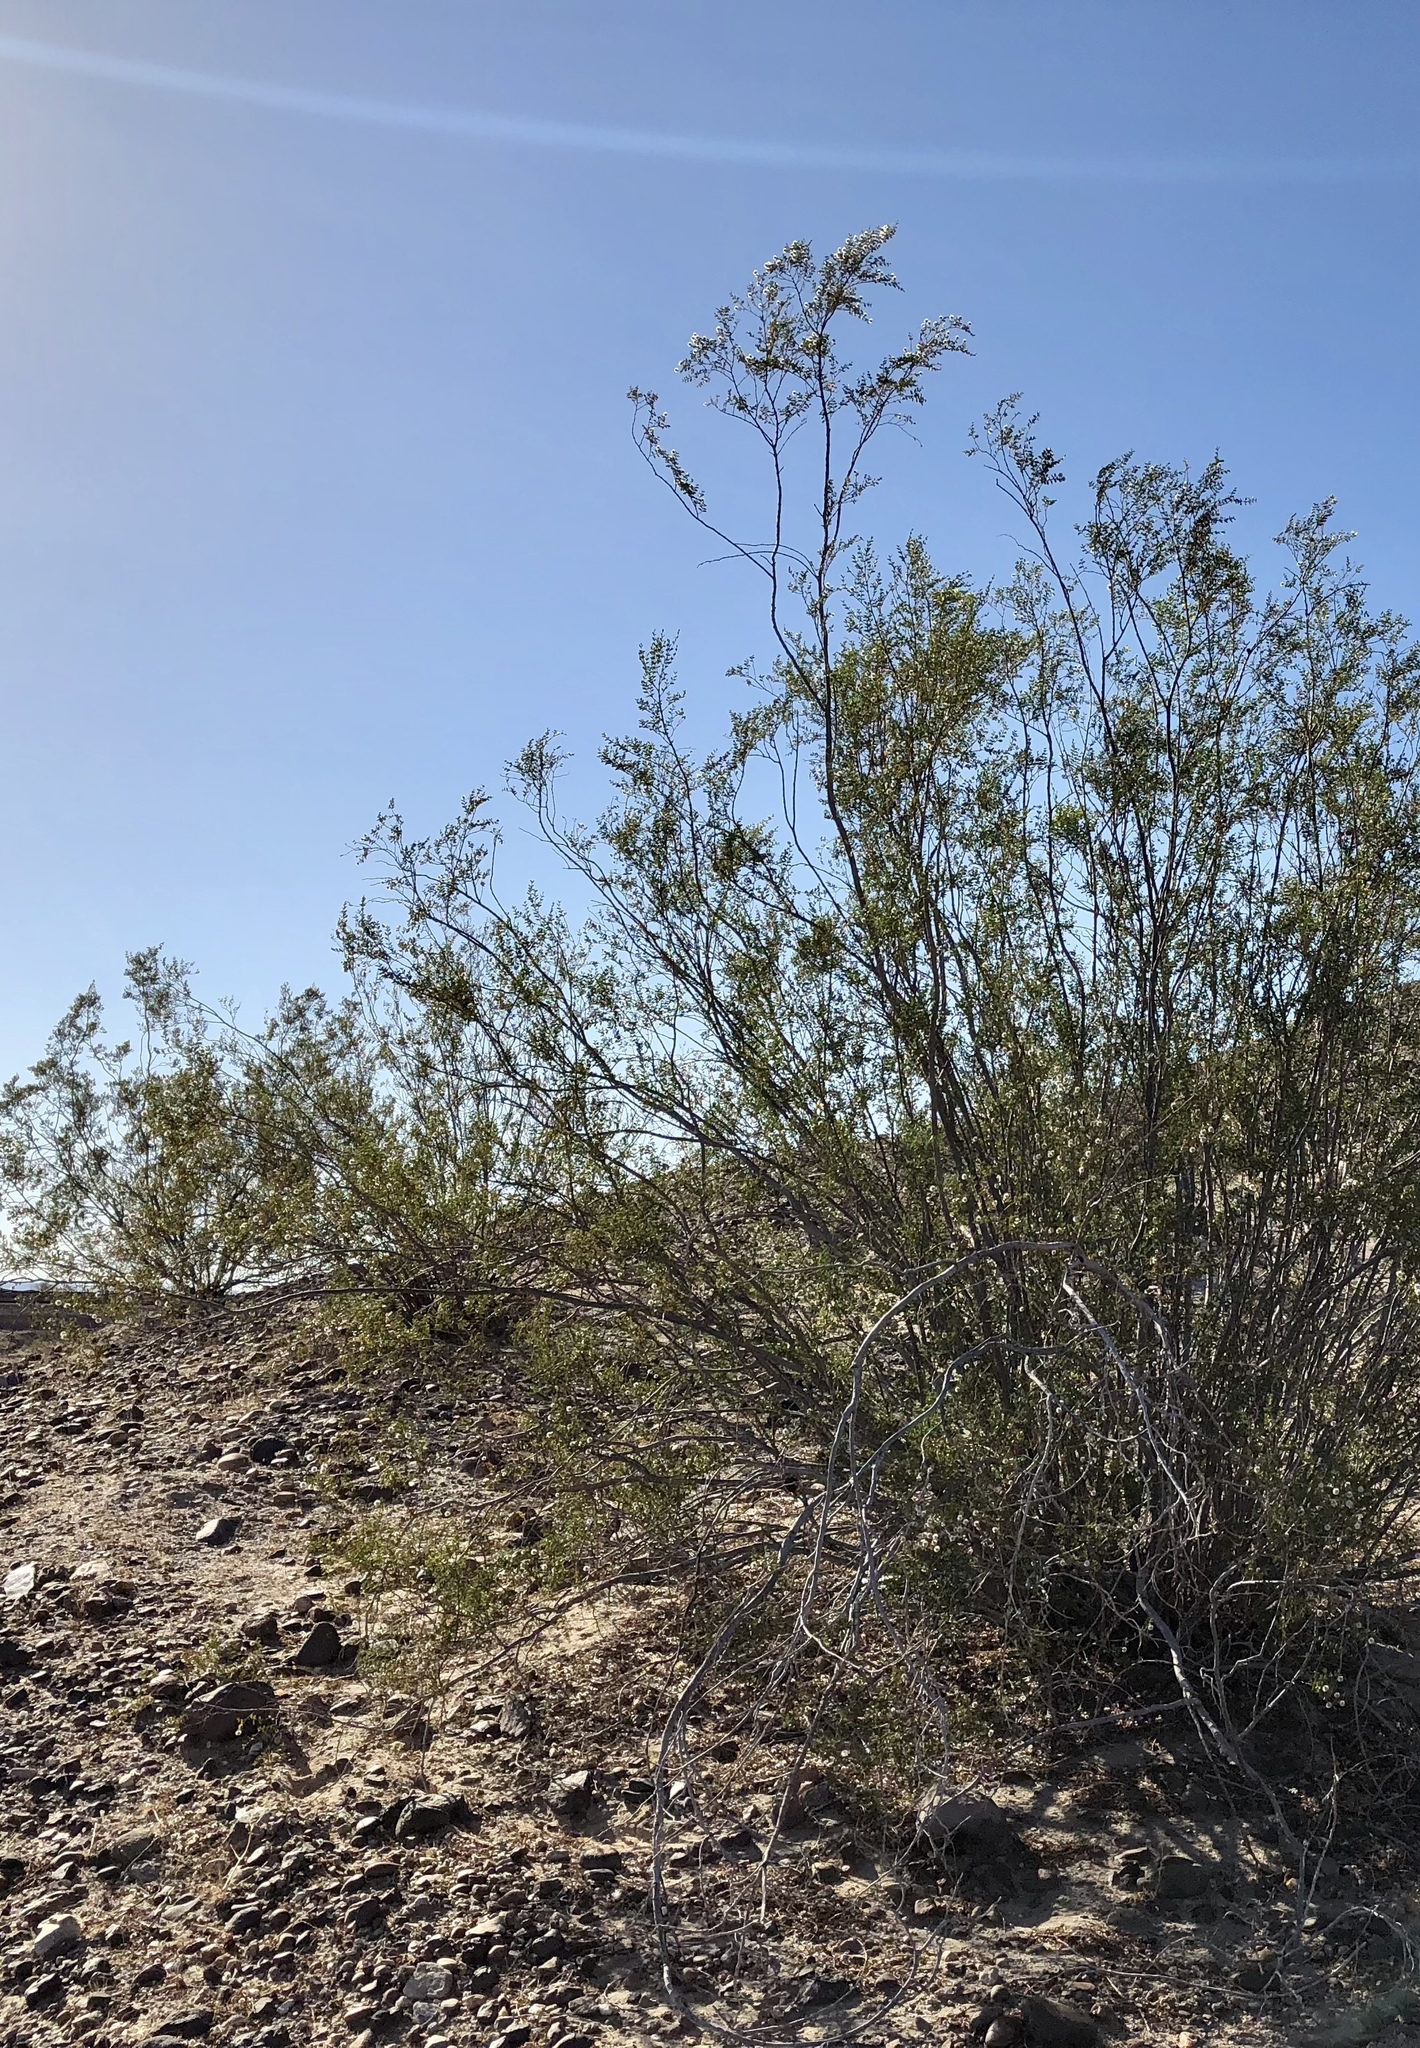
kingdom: Plantae
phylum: Tracheophyta
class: Magnoliopsida
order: Zygophyllales
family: Zygophyllaceae
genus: Larrea
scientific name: Larrea tridentata
